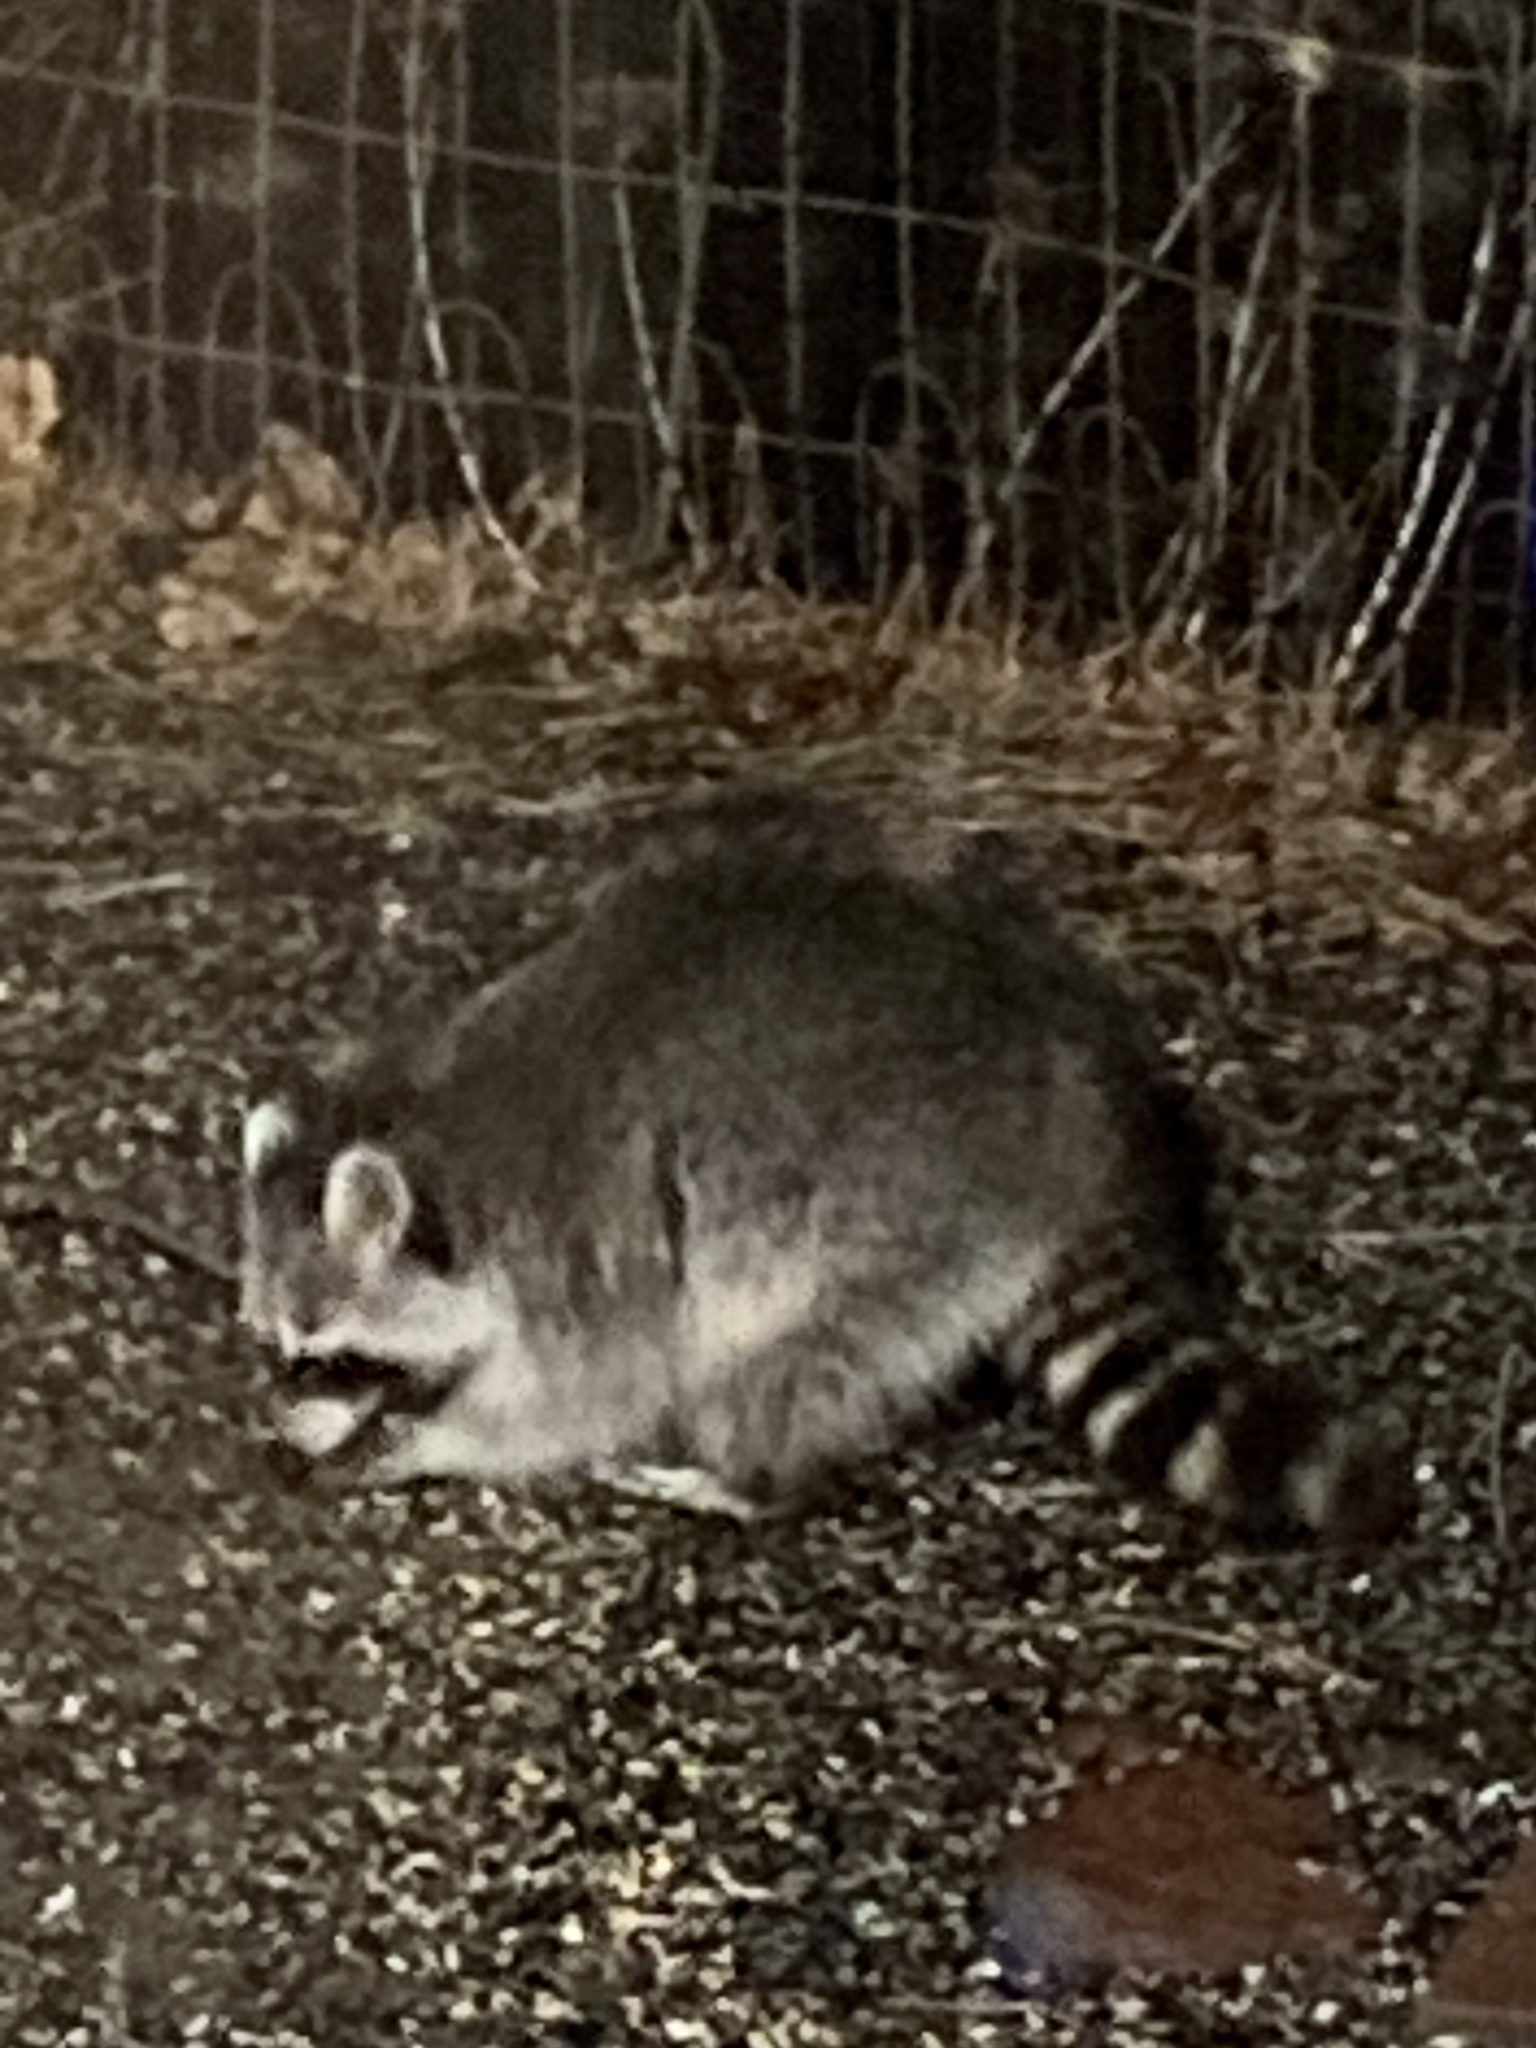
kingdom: Animalia
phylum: Chordata
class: Mammalia
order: Carnivora
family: Procyonidae
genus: Procyon
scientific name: Procyon lotor
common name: Raccoon
